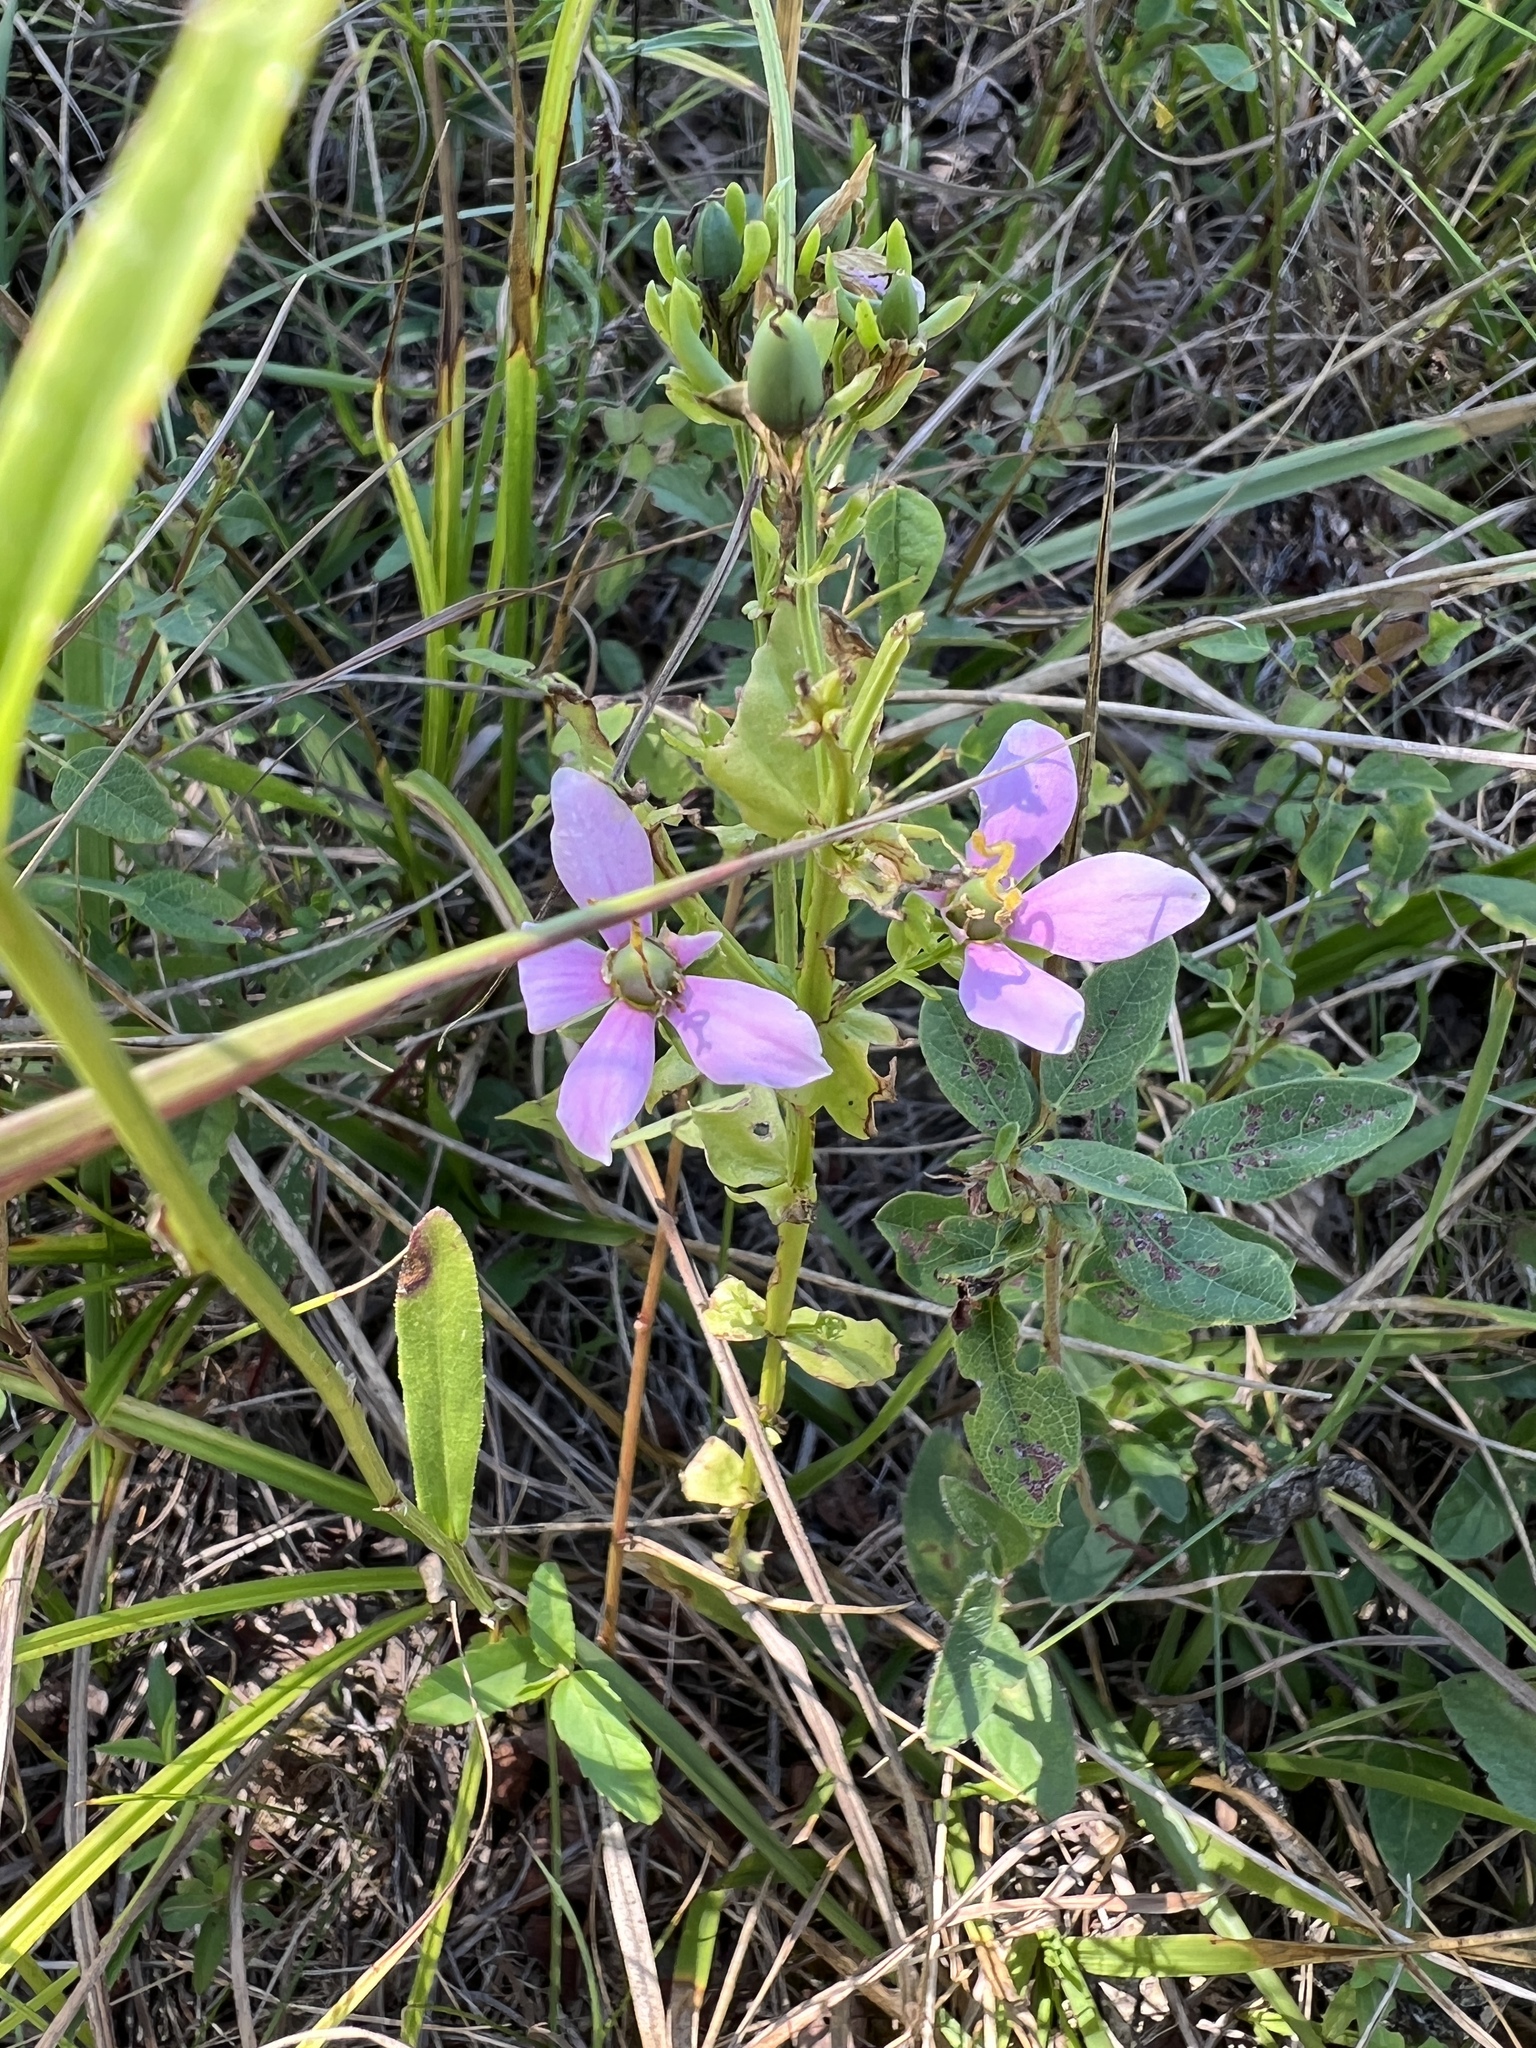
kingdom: Plantae
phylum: Tracheophyta
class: Magnoliopsida
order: Gentianales
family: Gentianaceae
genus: Sabatia
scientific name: Sabatia angularis
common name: Rose-pink
